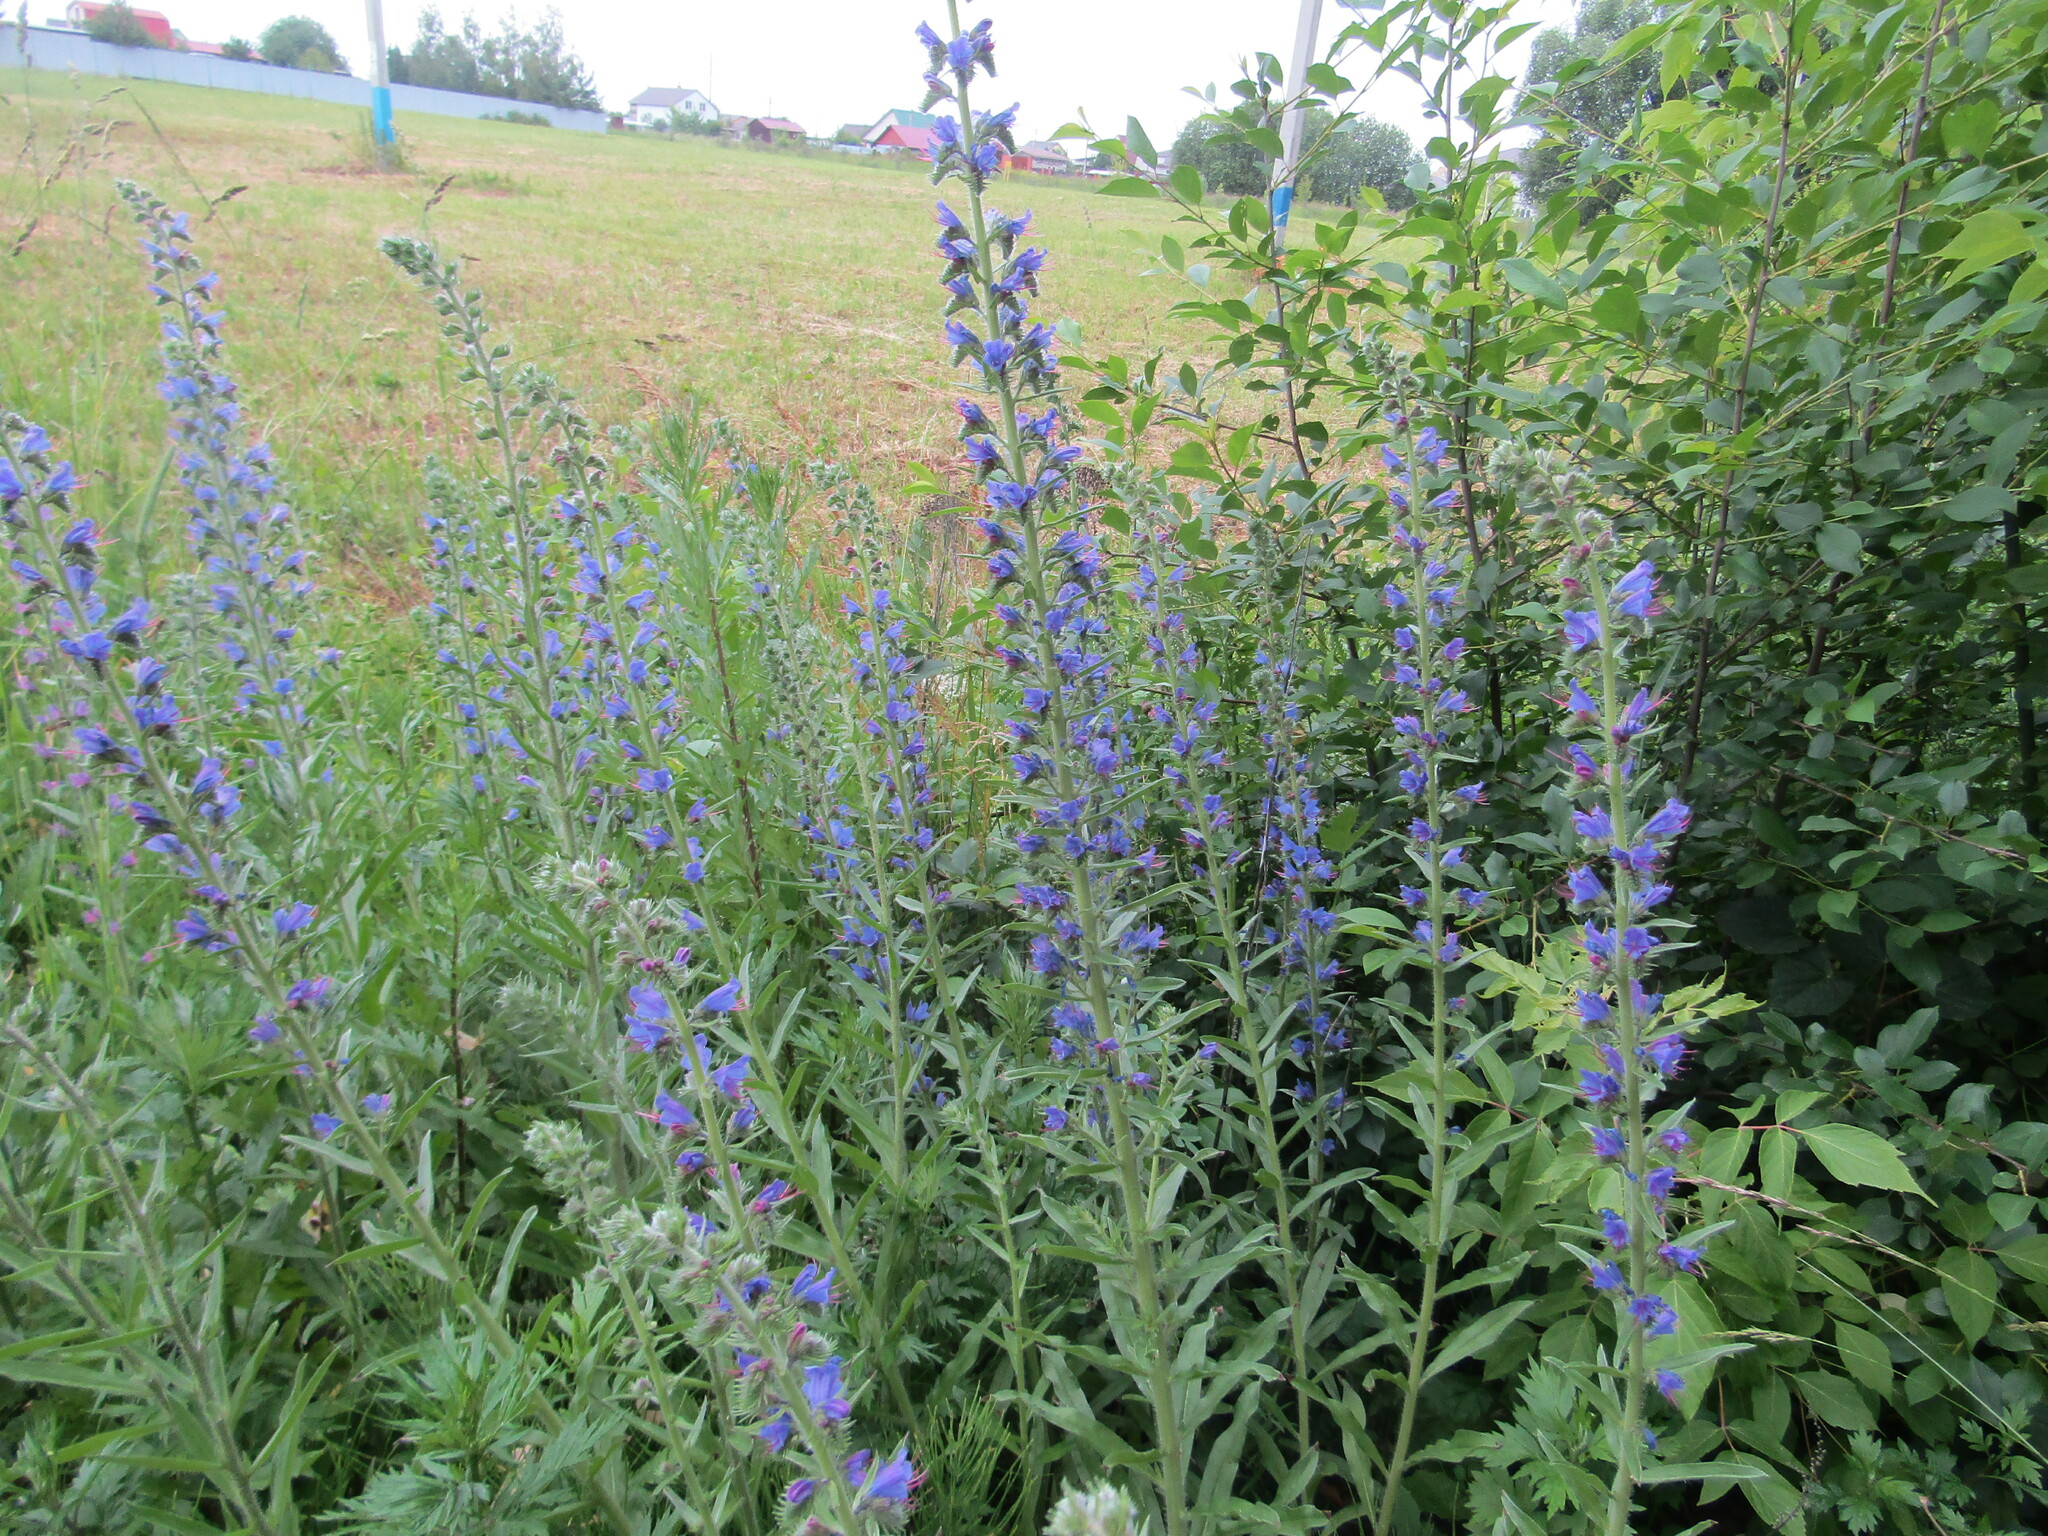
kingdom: Plantae
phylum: Tracheophyta
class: Magnoliopsida
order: Boraginales
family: Boraginaceae
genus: Echium
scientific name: Echium vulgare
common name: Common viper's bugloss
